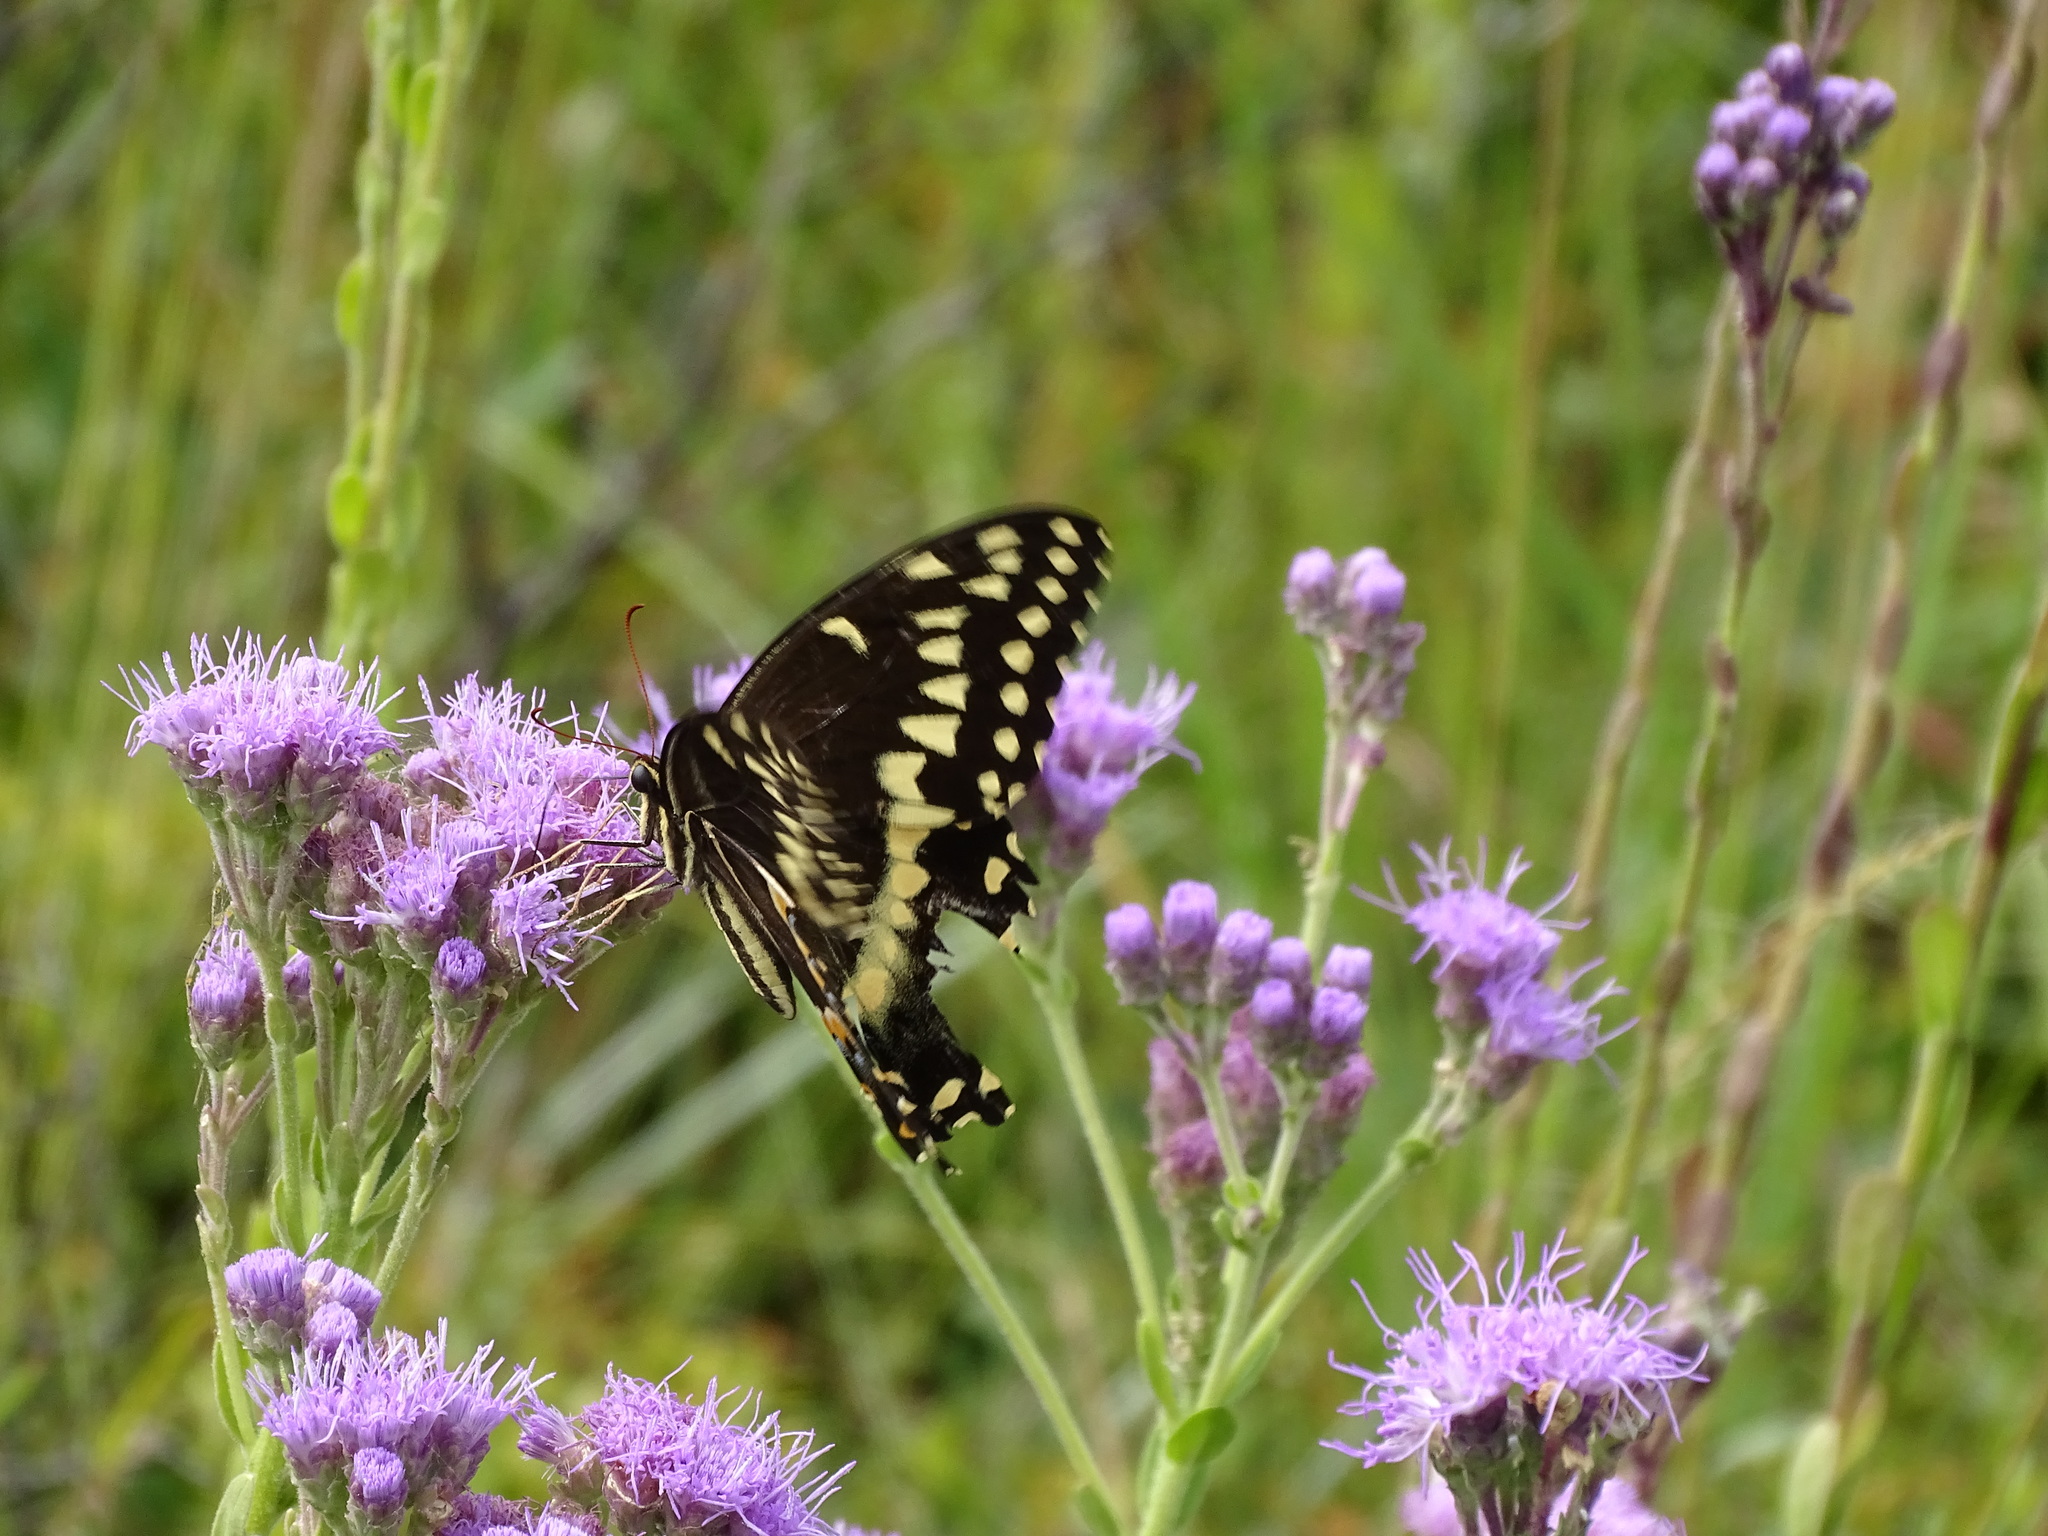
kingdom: Animalia
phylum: Arthropoda
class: Insecta
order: Lepidoptera
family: Papilionidae
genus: Papilio
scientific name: Papilio palamedes
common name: Palamedes swallowtail
